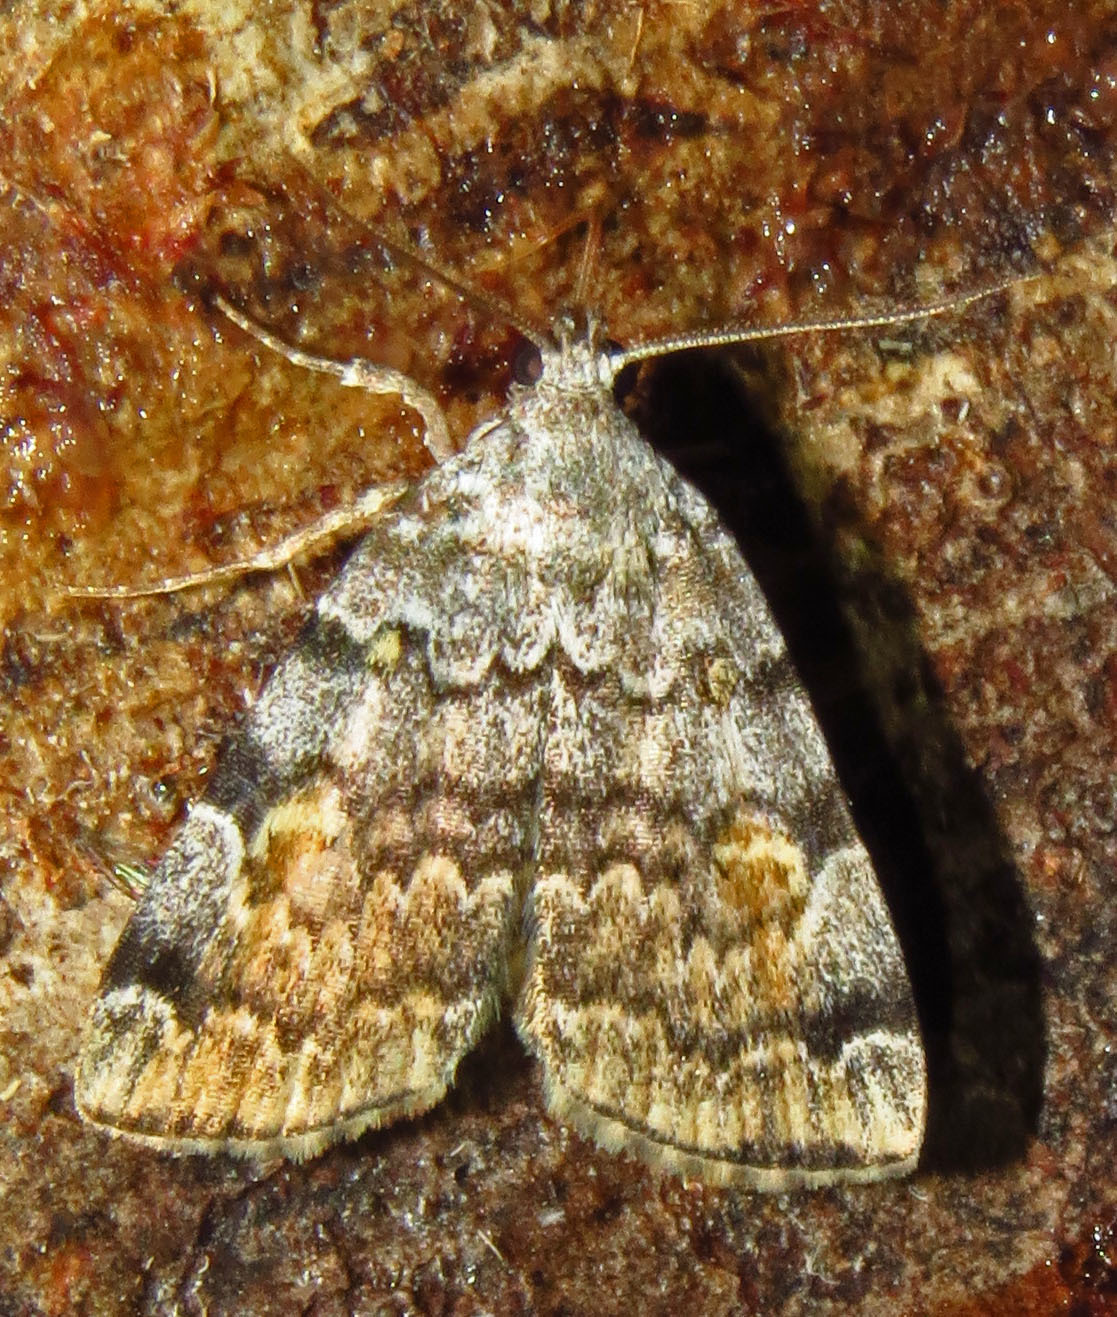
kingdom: Animalia
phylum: Arthropoda
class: Insecta
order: Lepidoptera
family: Erebidae
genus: Idia
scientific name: Idia americalis
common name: American idia moth
